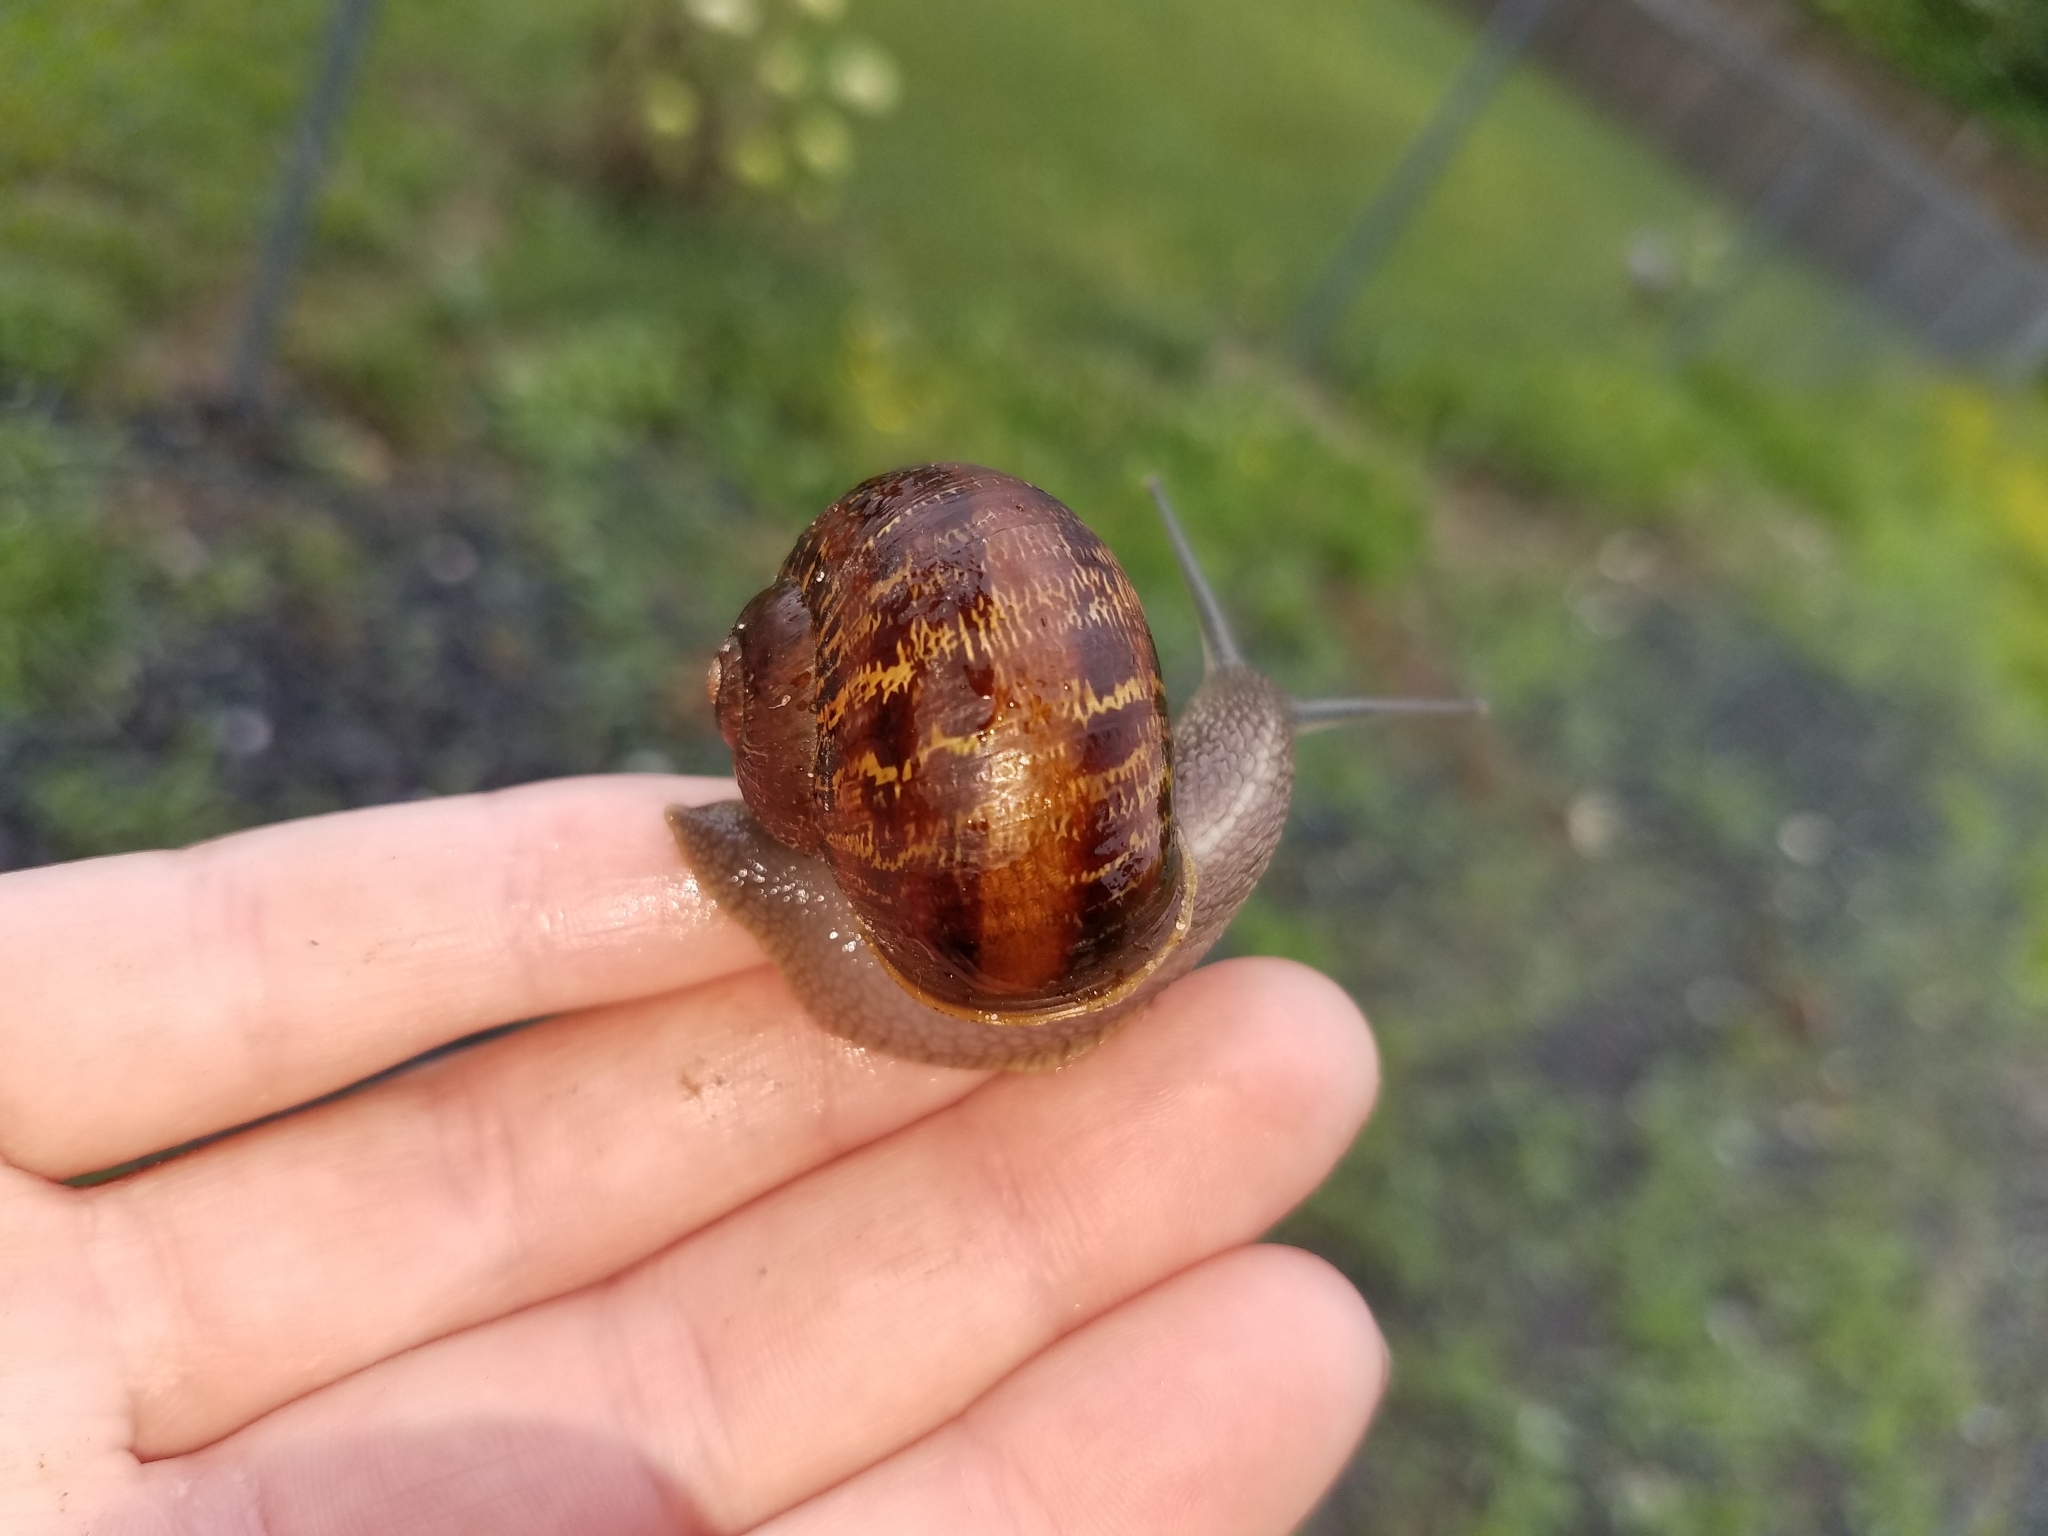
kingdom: Animalia
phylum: Mollusca
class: Gastropoda
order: Stylommatophora
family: Helicidae
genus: Cornu
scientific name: Cornu aspersum
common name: Brown garden snail
